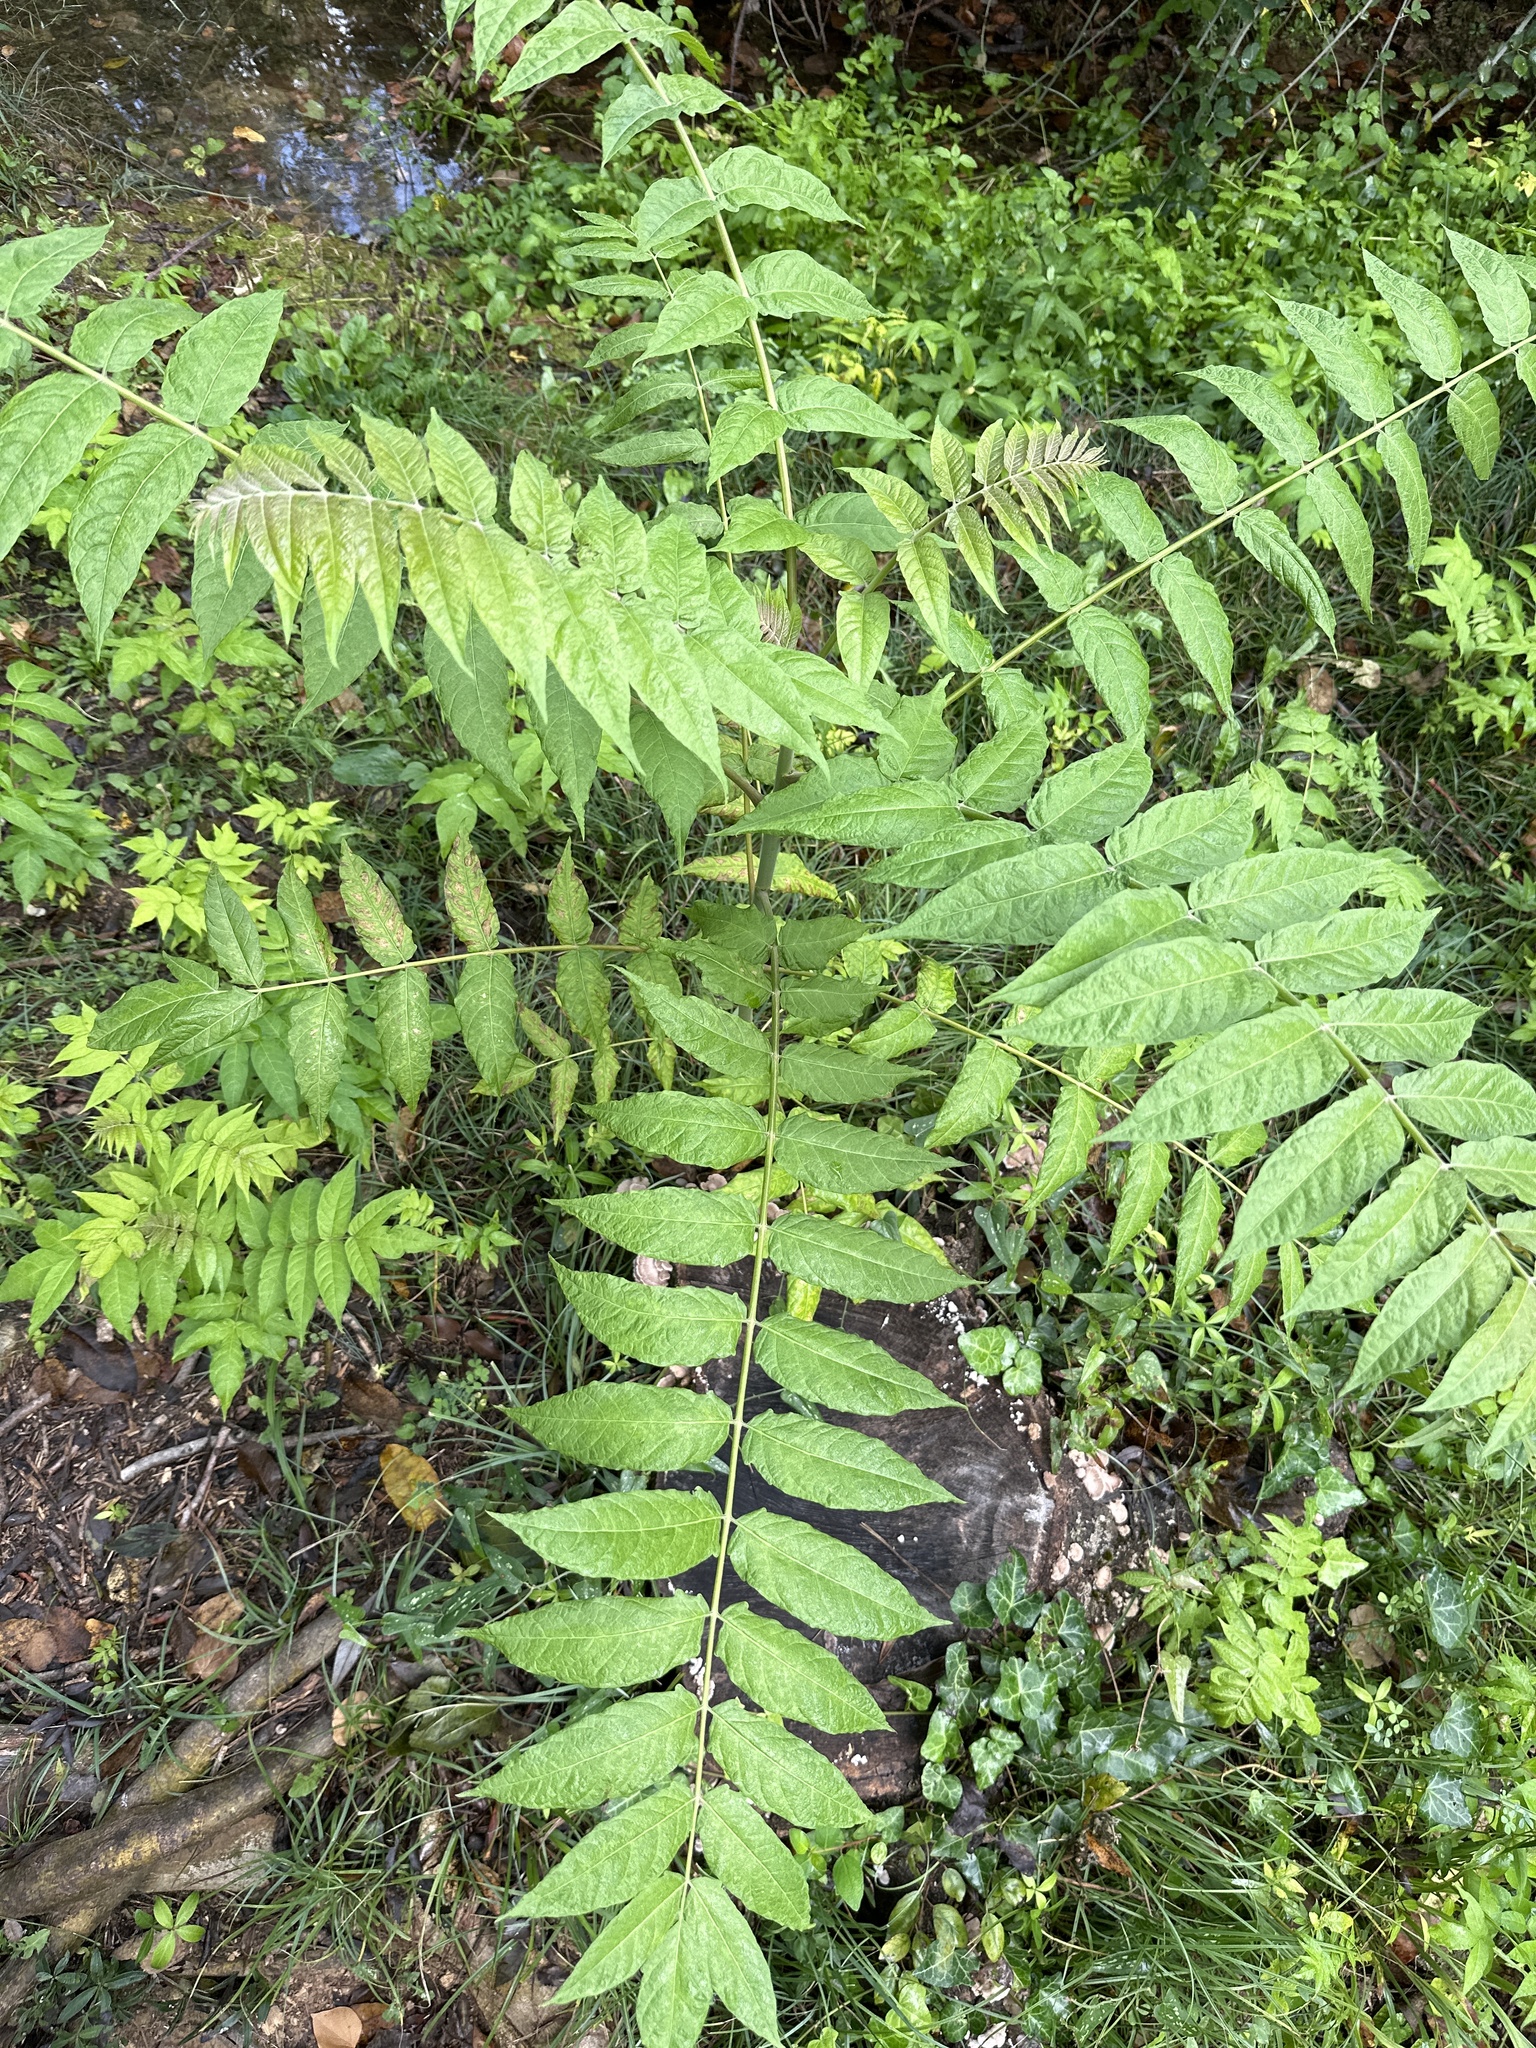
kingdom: Plantae
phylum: Tracheophyta
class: Magnoliopsida
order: Sapindales
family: Simaroubaceae
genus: Ailanthus
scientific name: Ailanthus altissima
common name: Tree-of-heaven
